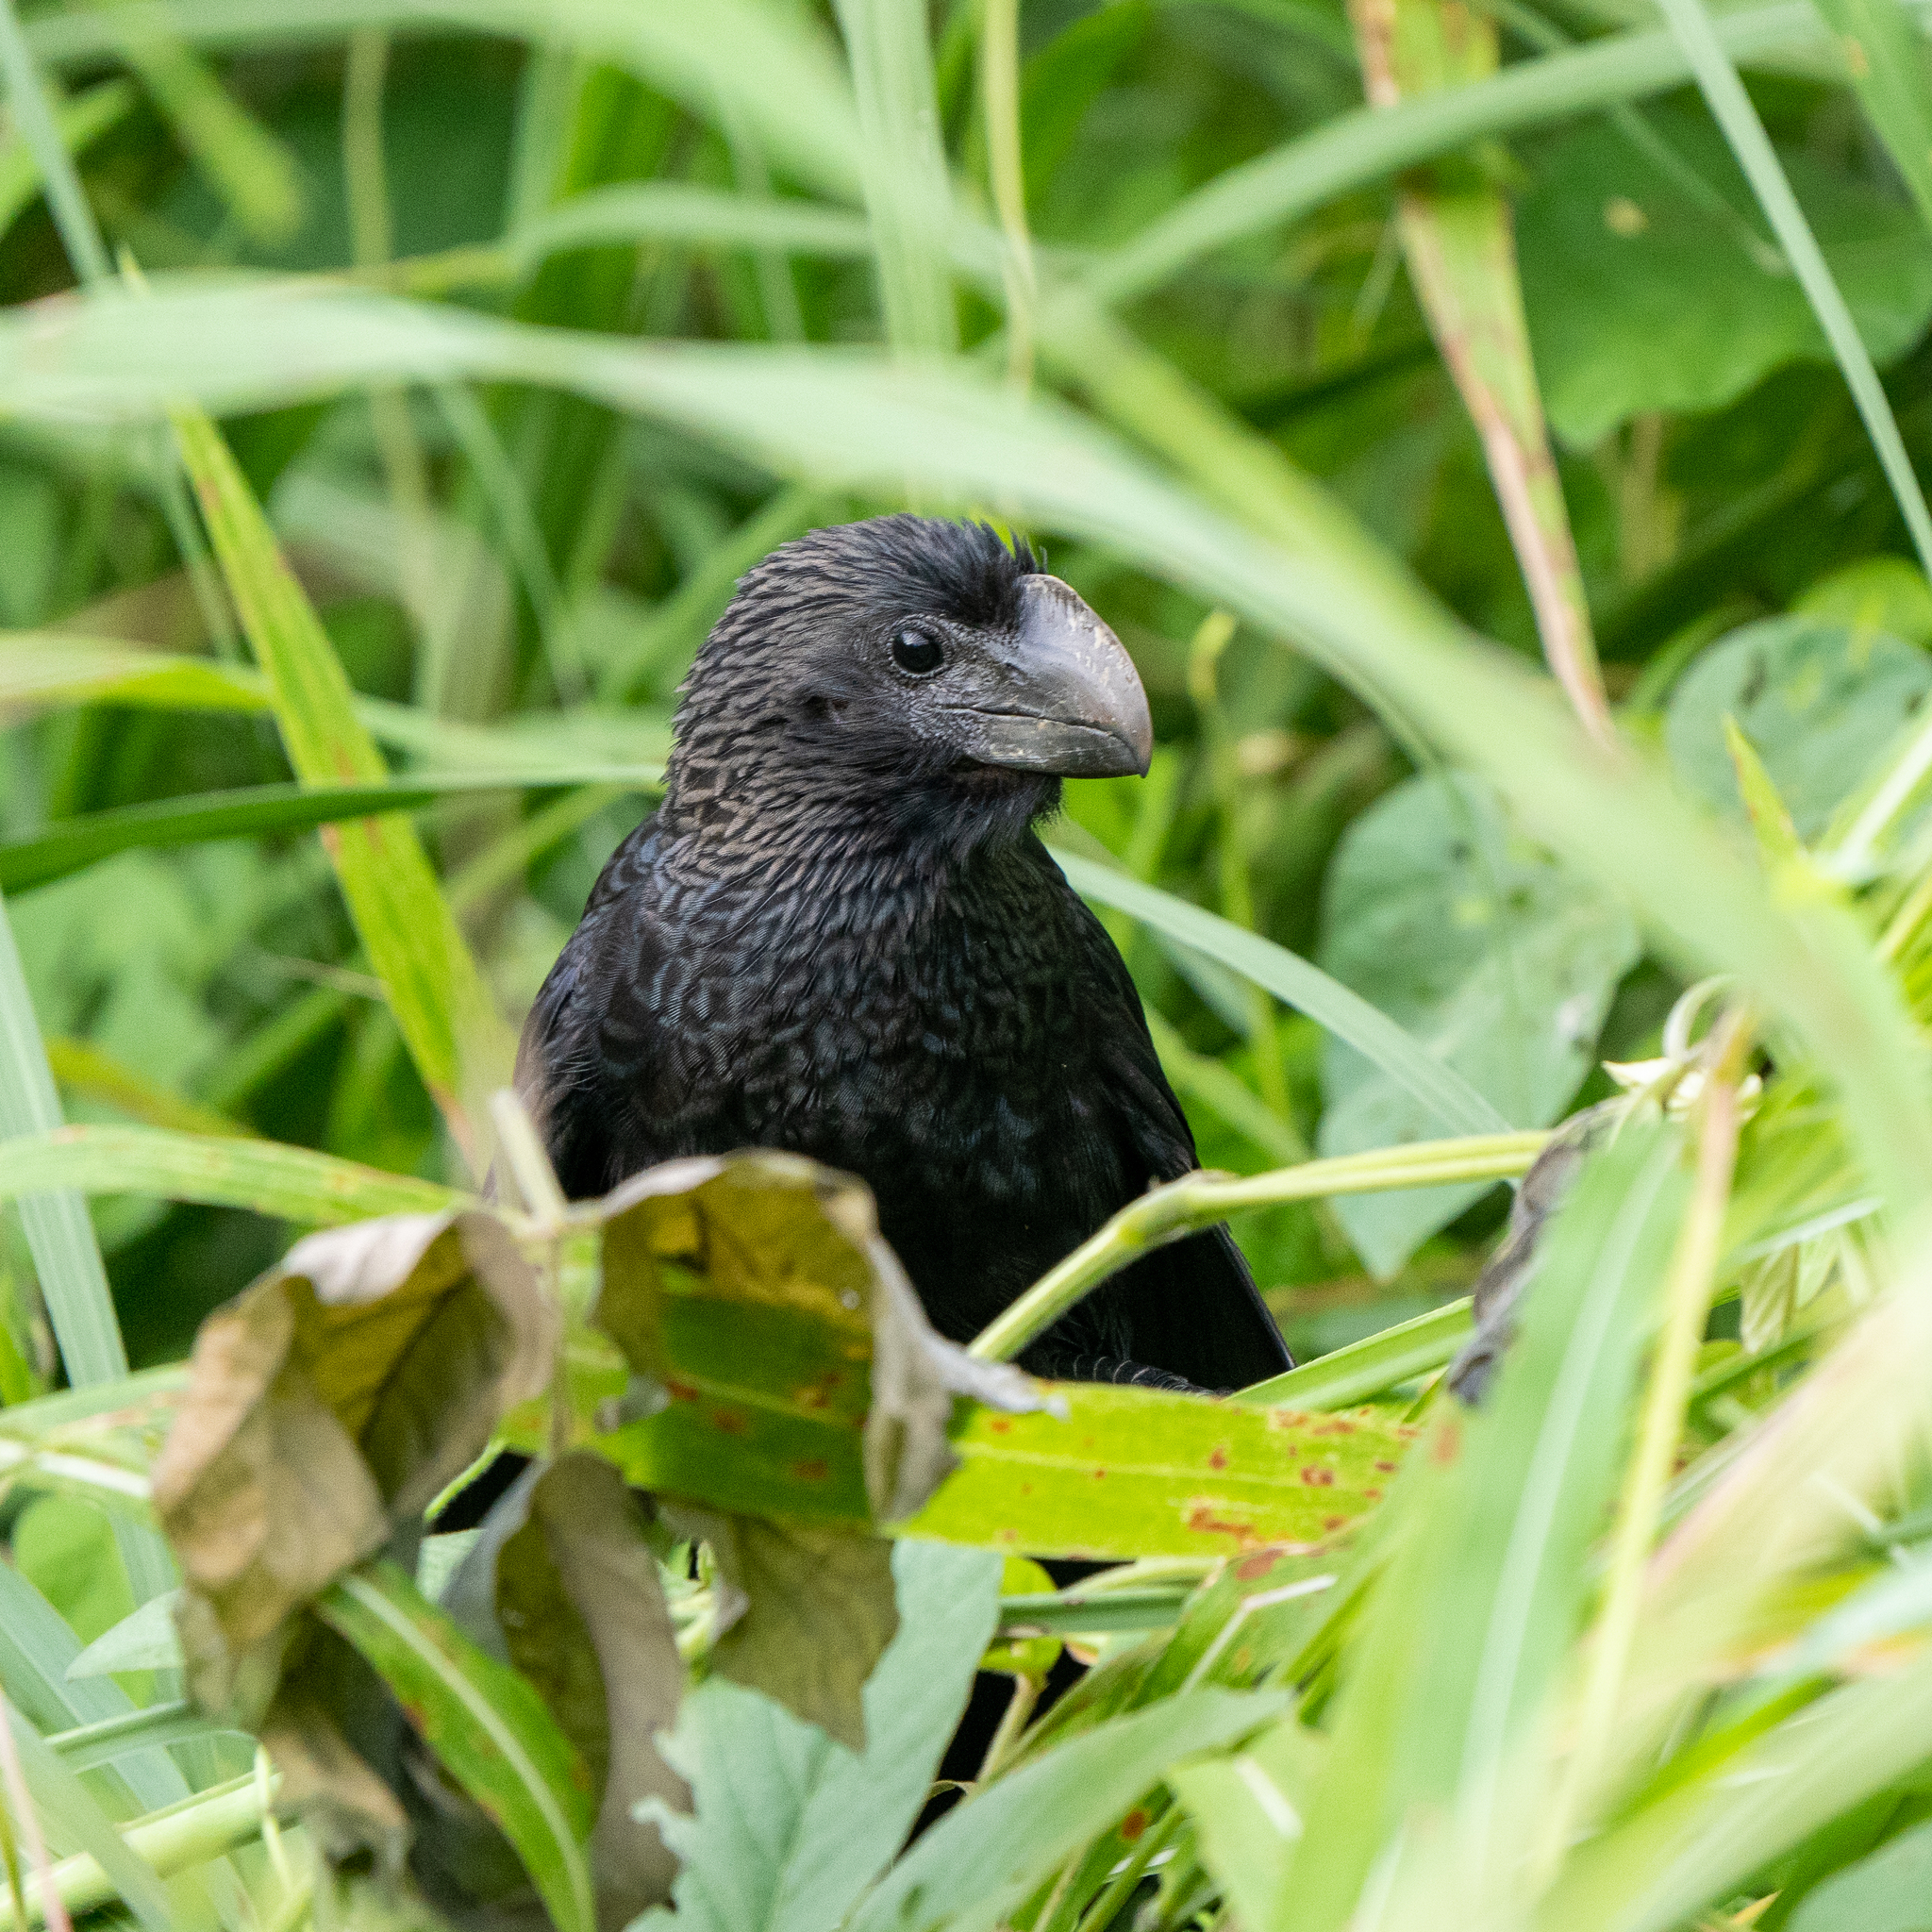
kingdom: Animalia
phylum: Chordata
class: Aves
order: Cuculiformes
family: Cuculidae
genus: Crotophaga
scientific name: Crotophaga ani
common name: Smooth-billed ani
